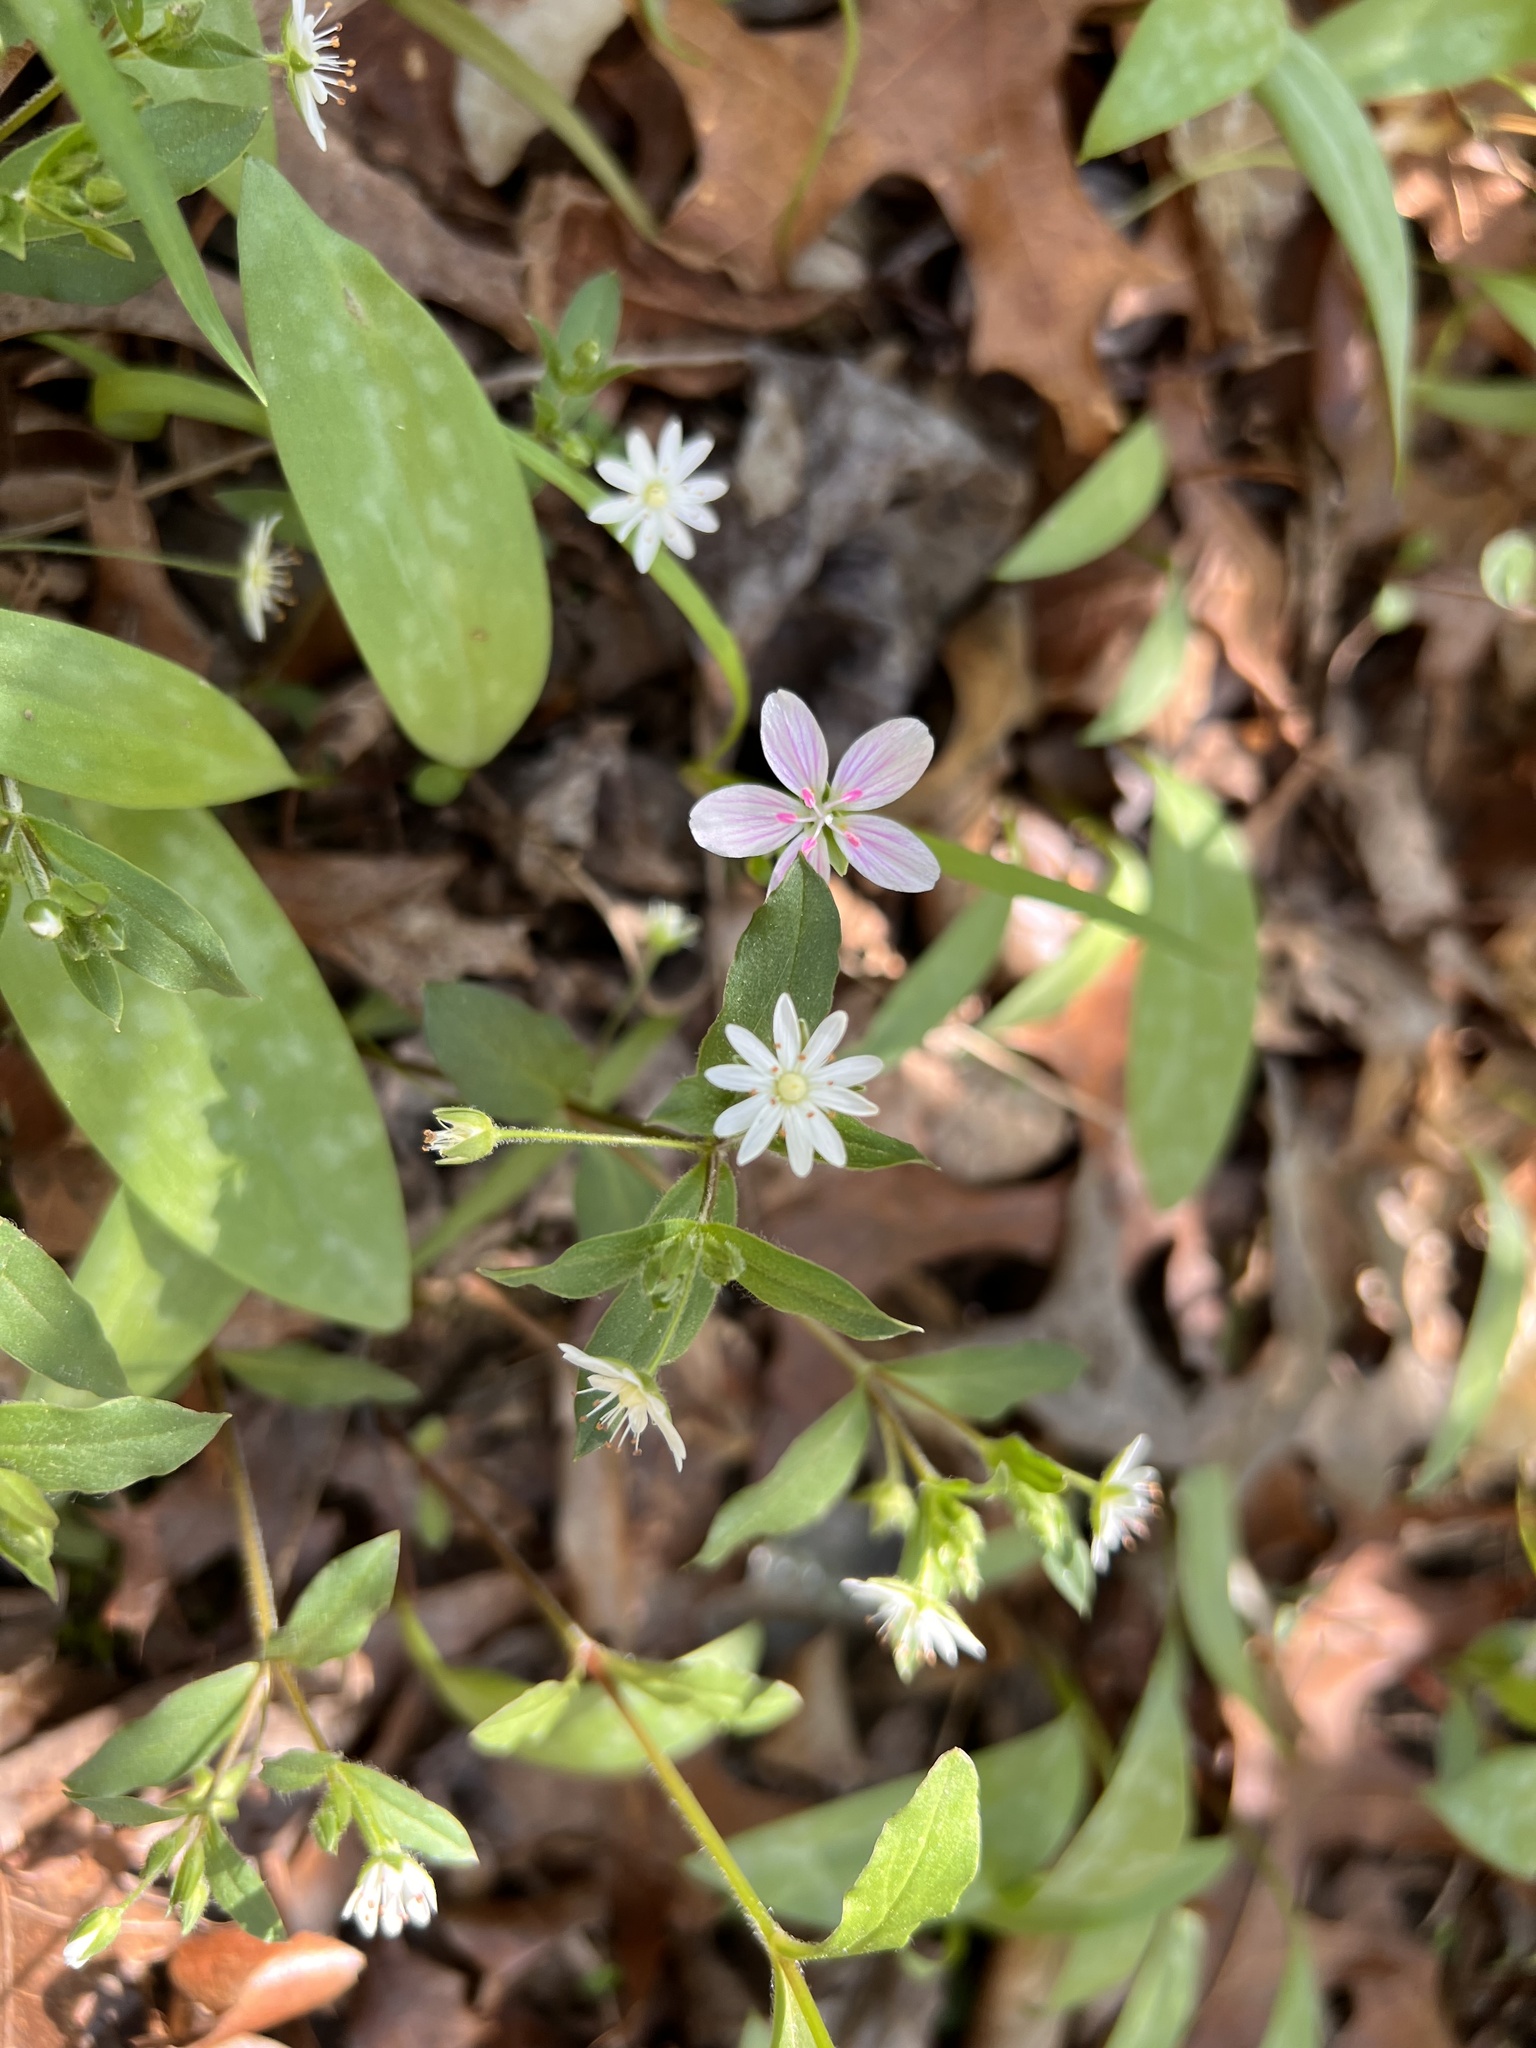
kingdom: Plantae
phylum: Tracheophyta
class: Magnoliopsida
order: Caryophyllales
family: Caryophyllaceae
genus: Stellaria
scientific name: Stellaria pubera
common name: Star chickweed
